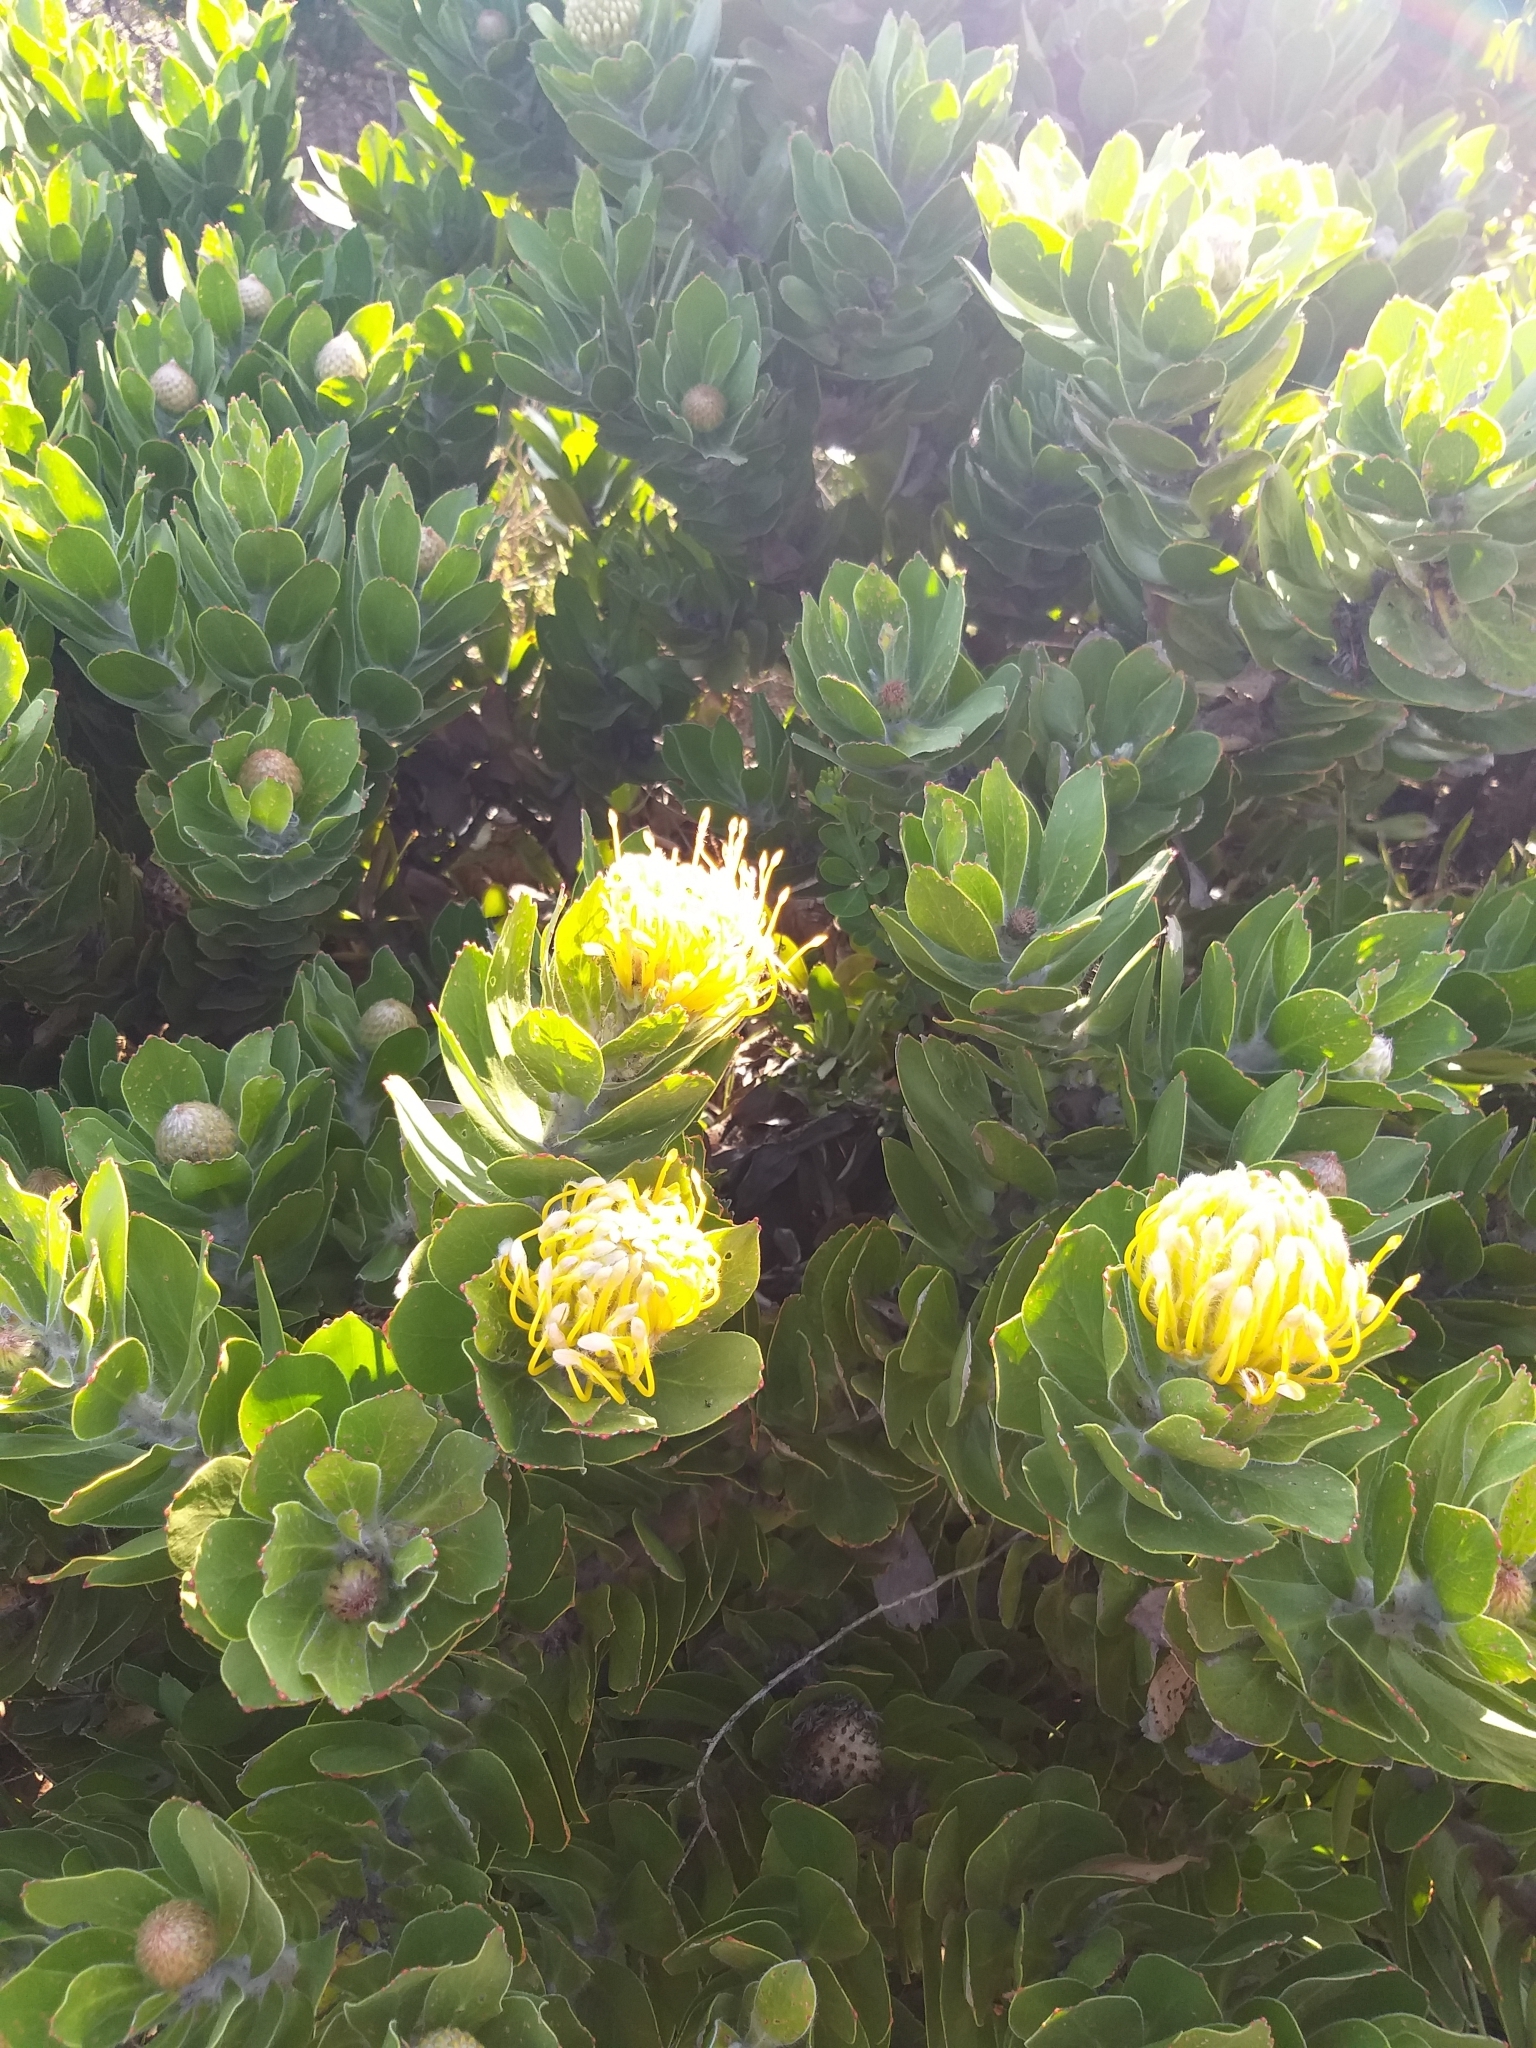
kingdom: Plantae
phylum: Tracheophyta
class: Magnoliopsida
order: Proteales
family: Proteaceae
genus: Leucospermum
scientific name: Leucospermum conocarpodendron
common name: Tree pincushion
